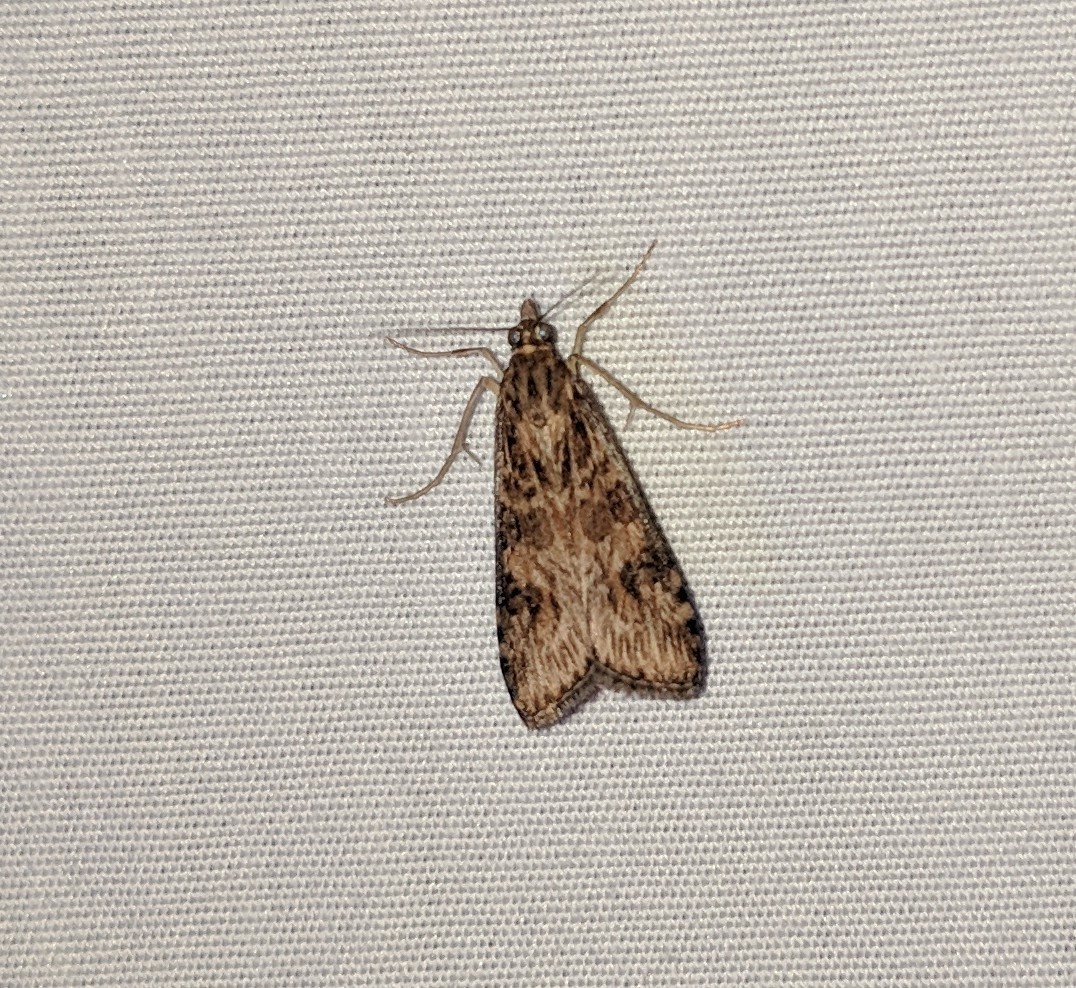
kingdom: Animalia
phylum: Arthropoda
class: Insecta
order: Lepidoptera
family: Crambidae
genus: Nomophila
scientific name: Nomophila nearctica
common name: American rush veneer
